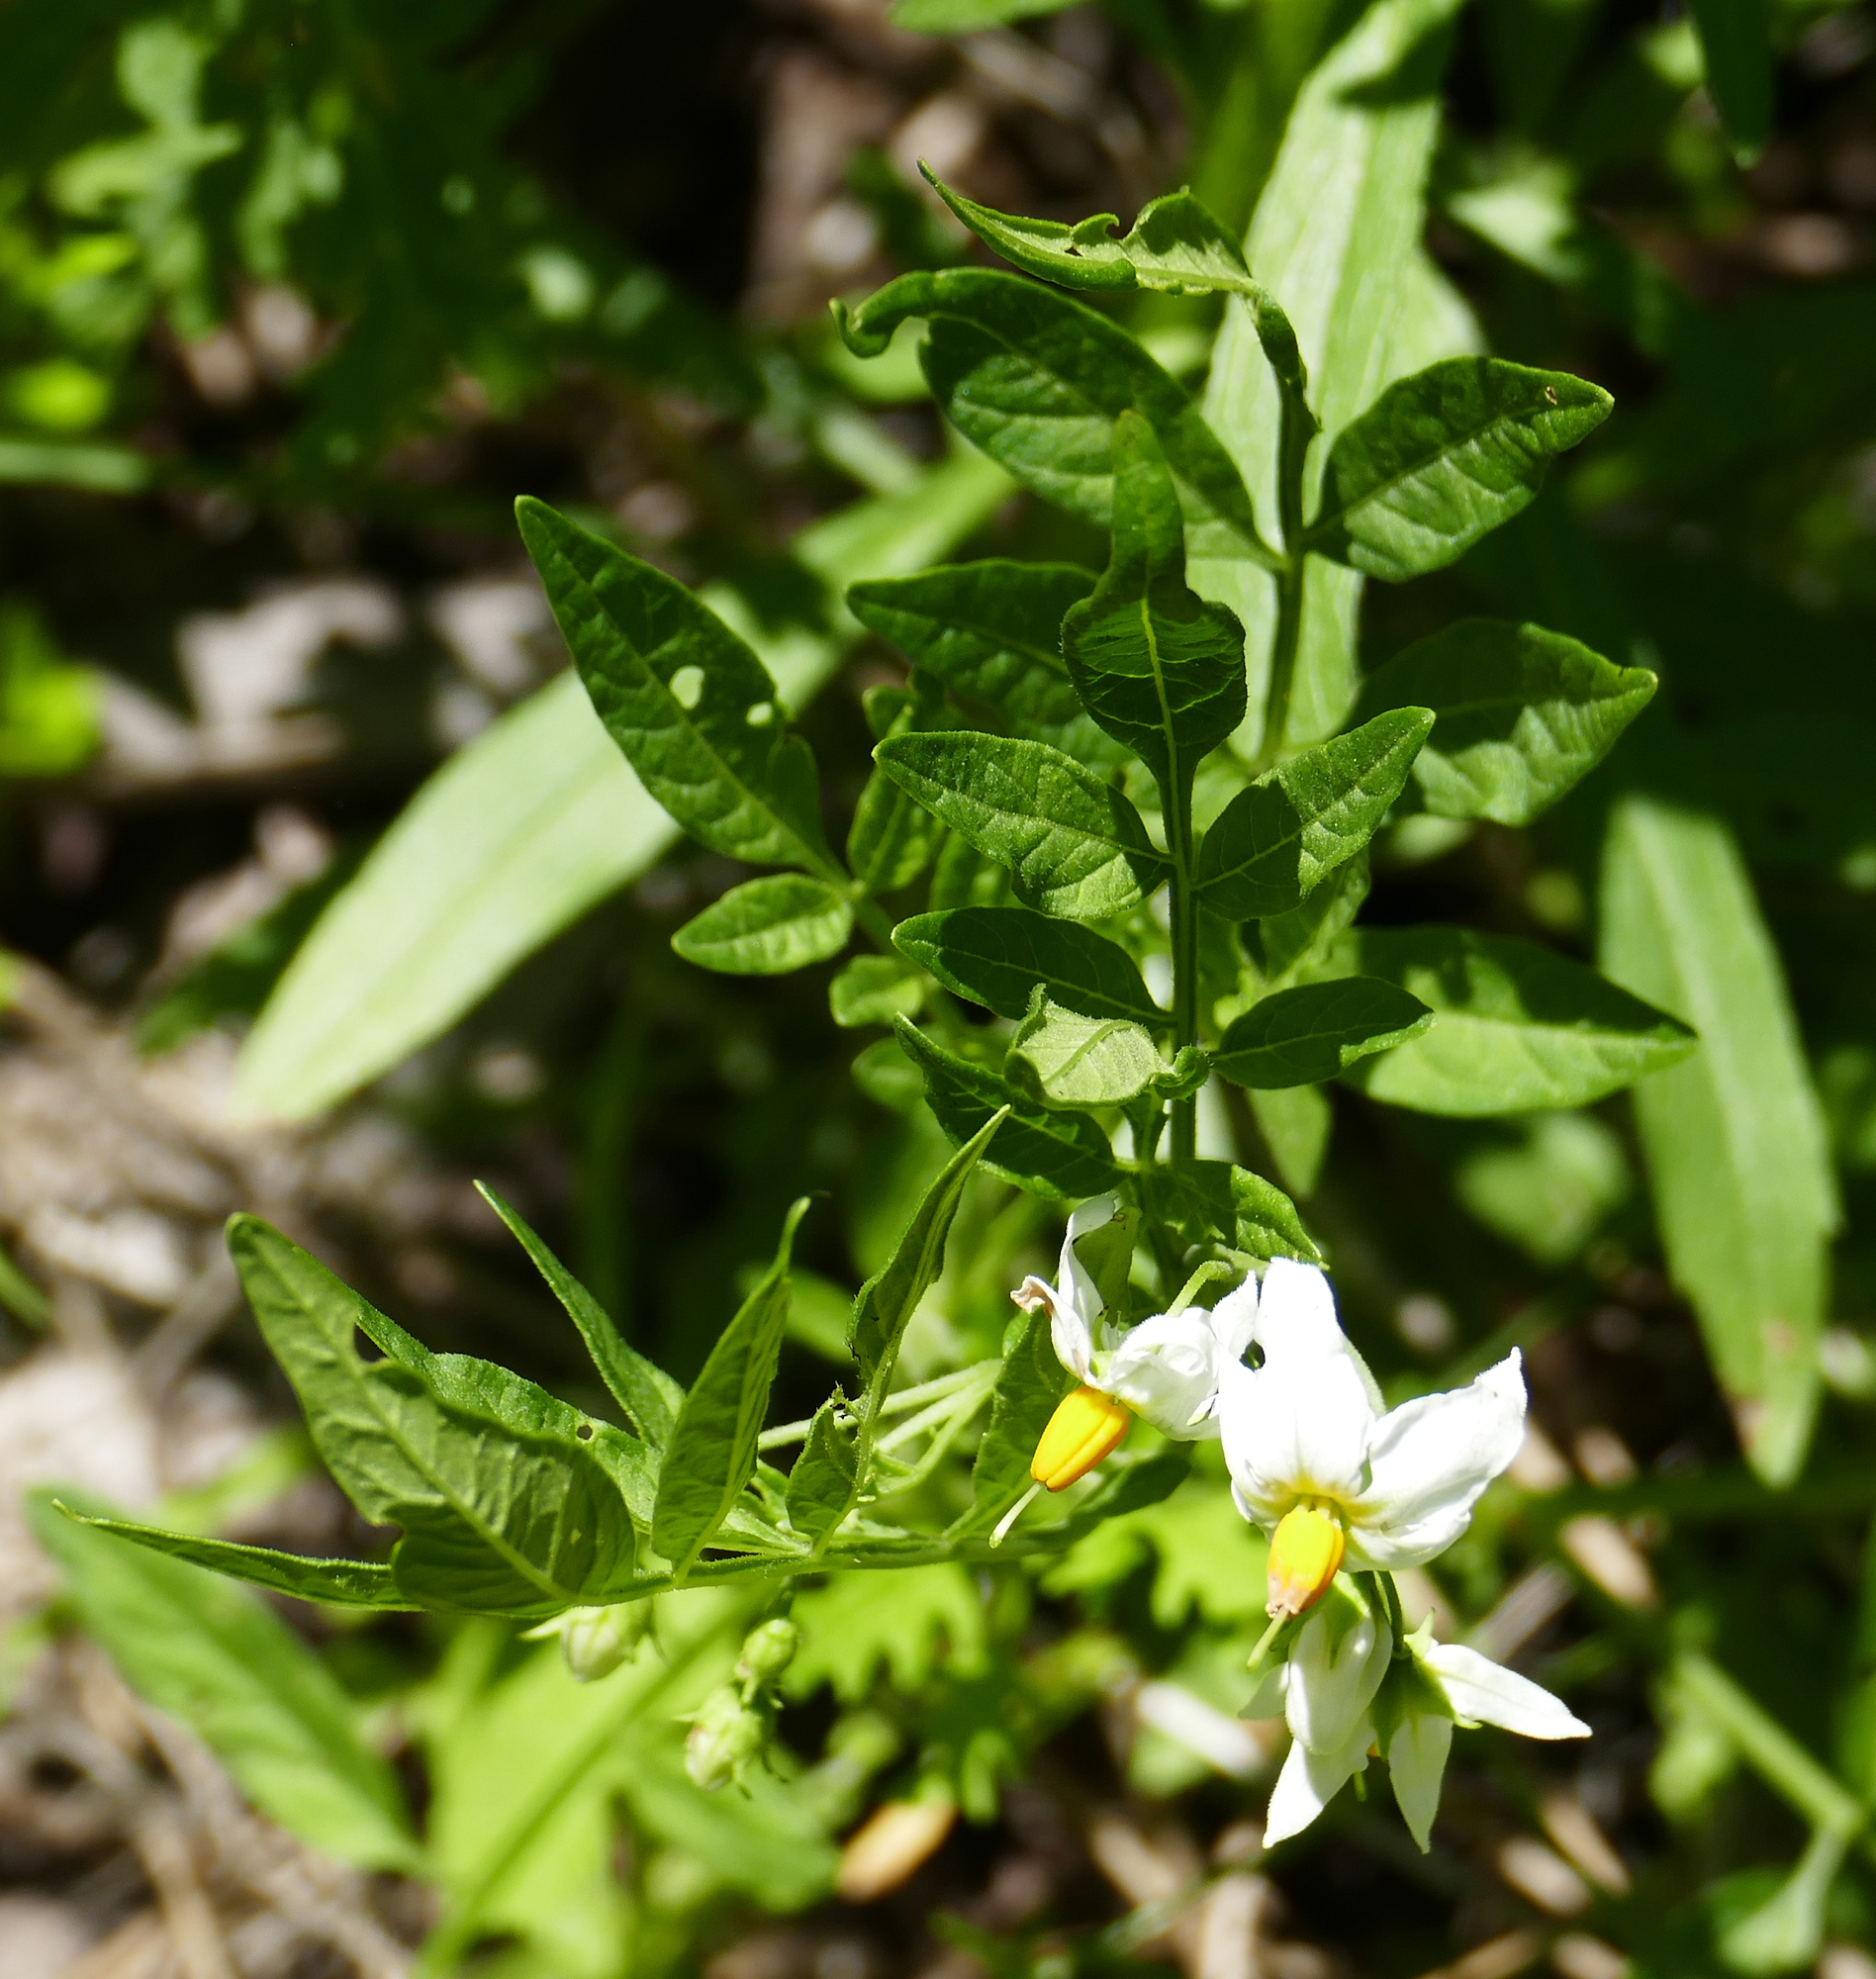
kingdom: Plantae
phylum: Tracheophyta
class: Magnoliopsida
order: Solanales
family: Solanaceae
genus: Solanum
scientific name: Solanum jamesii
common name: Wild potato
